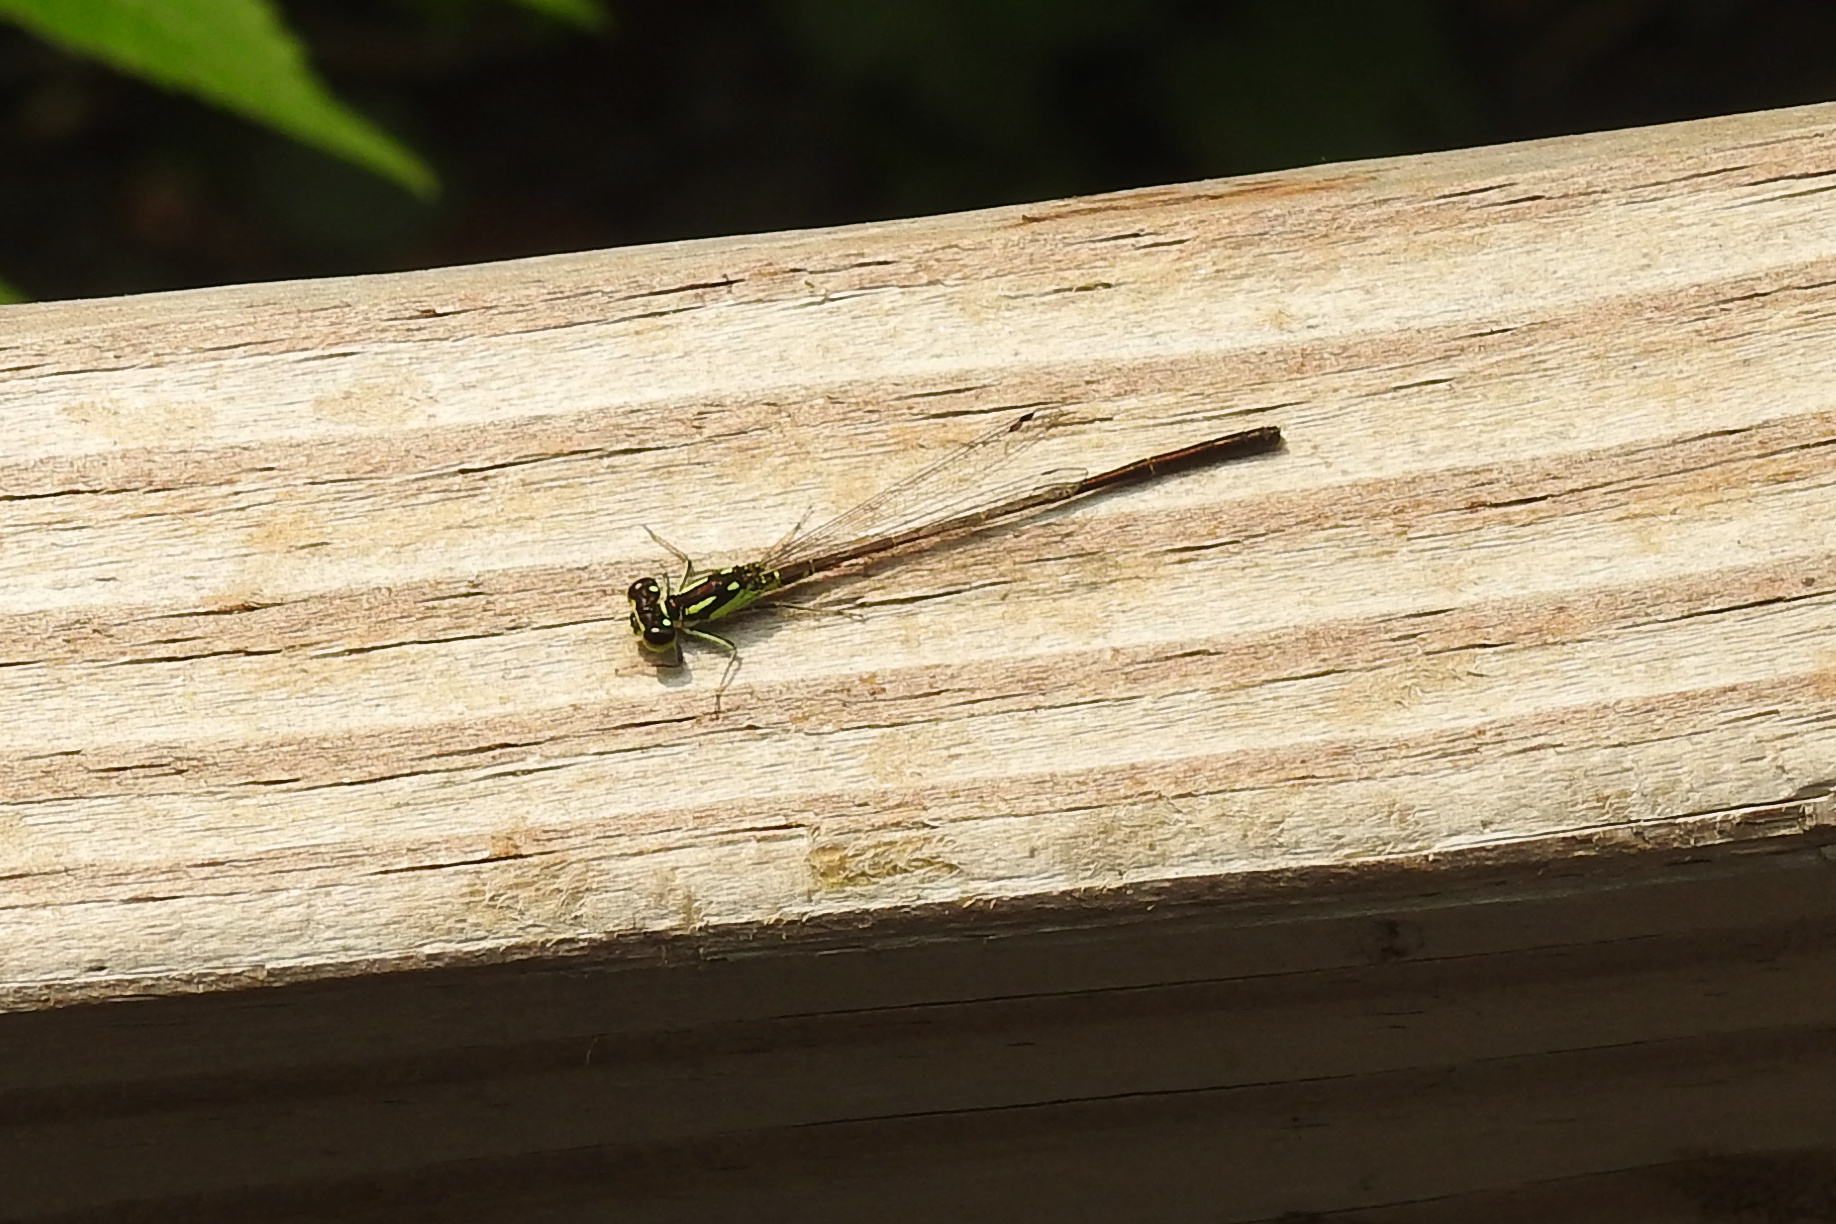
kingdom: Animalia
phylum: Arthropoda
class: Insecta
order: Odonata
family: Coenagrionidae
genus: Ischnura
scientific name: Ischnura posita
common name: Fragile forktail
